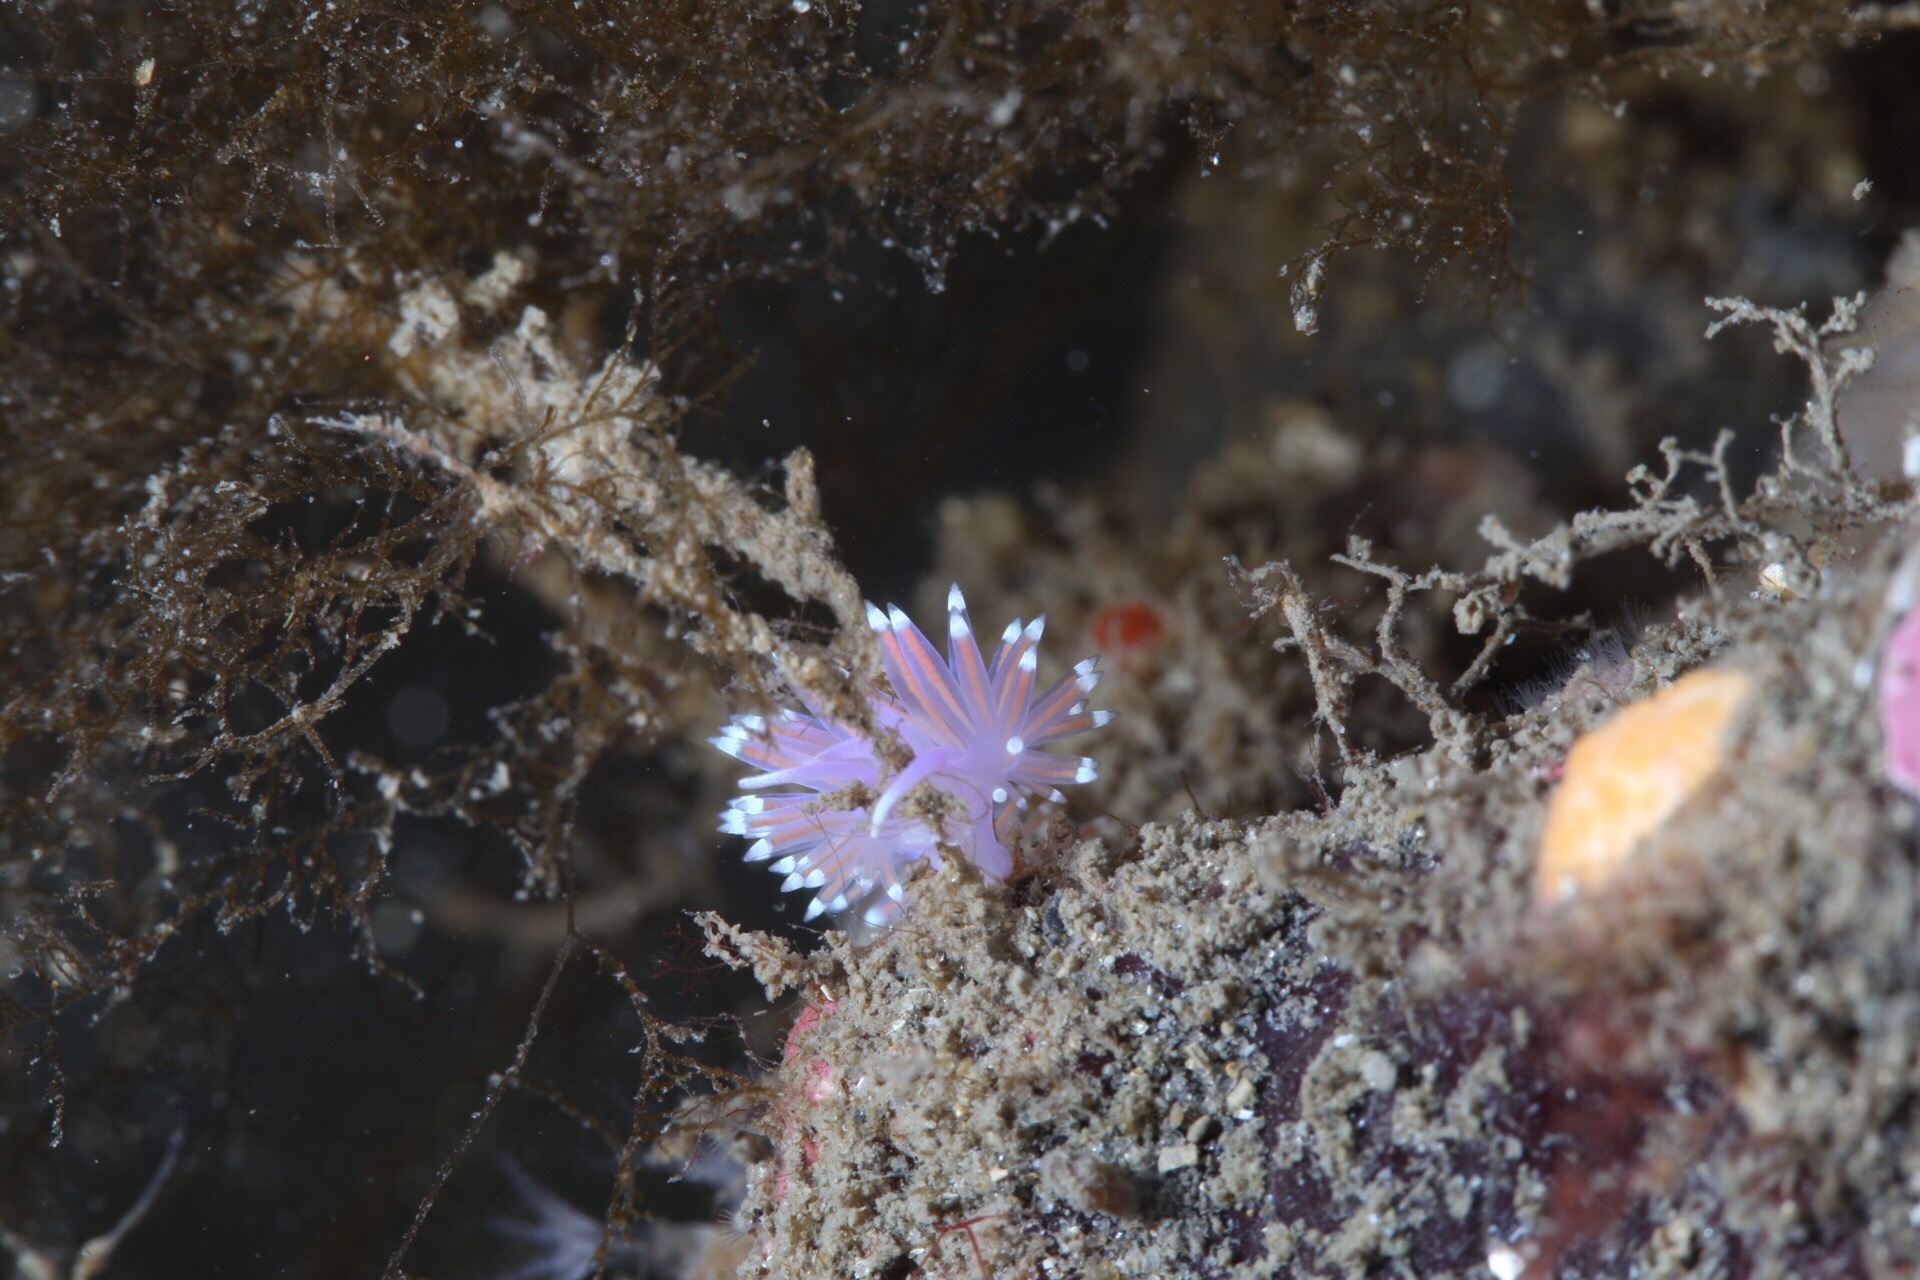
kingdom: Animalia
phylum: Mollusca
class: Gastropoda
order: Nudibranchia
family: Flabellinidae
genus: Edmundsella
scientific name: Edmundsella pedata
